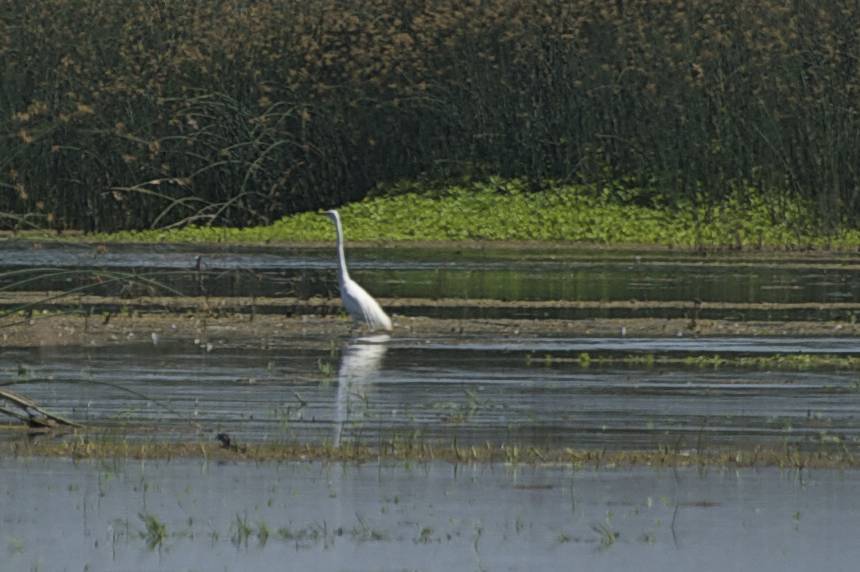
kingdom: Animalia
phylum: Chordata
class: Aves
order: Pelecaniformes
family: Ardeidae
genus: Ardea
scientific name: Ardea alba
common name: Great egret
